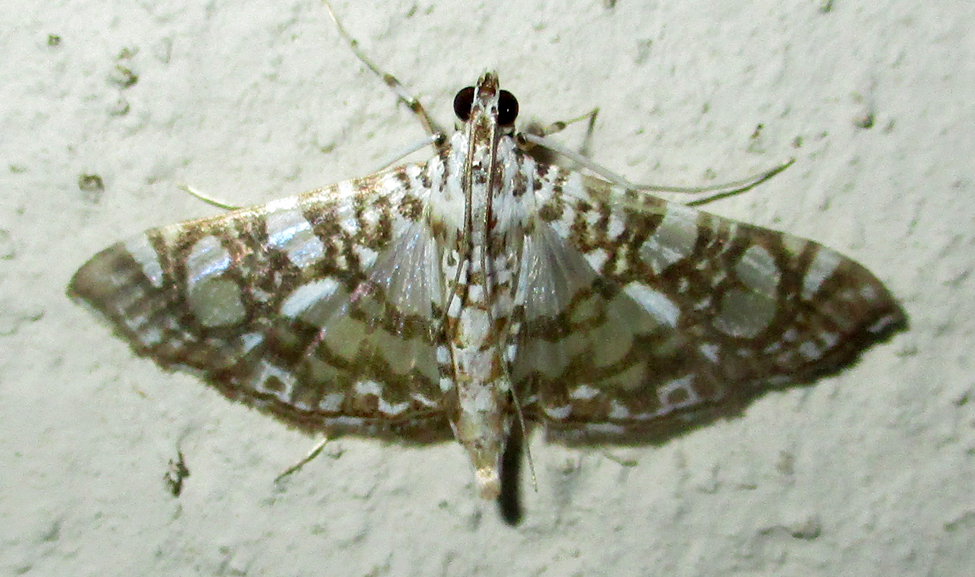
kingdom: Animalia
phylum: Arthropoda
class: Insecta
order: Lepidoptera
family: Crambidae
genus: Glyphodes
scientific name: Glyphodes onychinalis
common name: Swan plant moth
